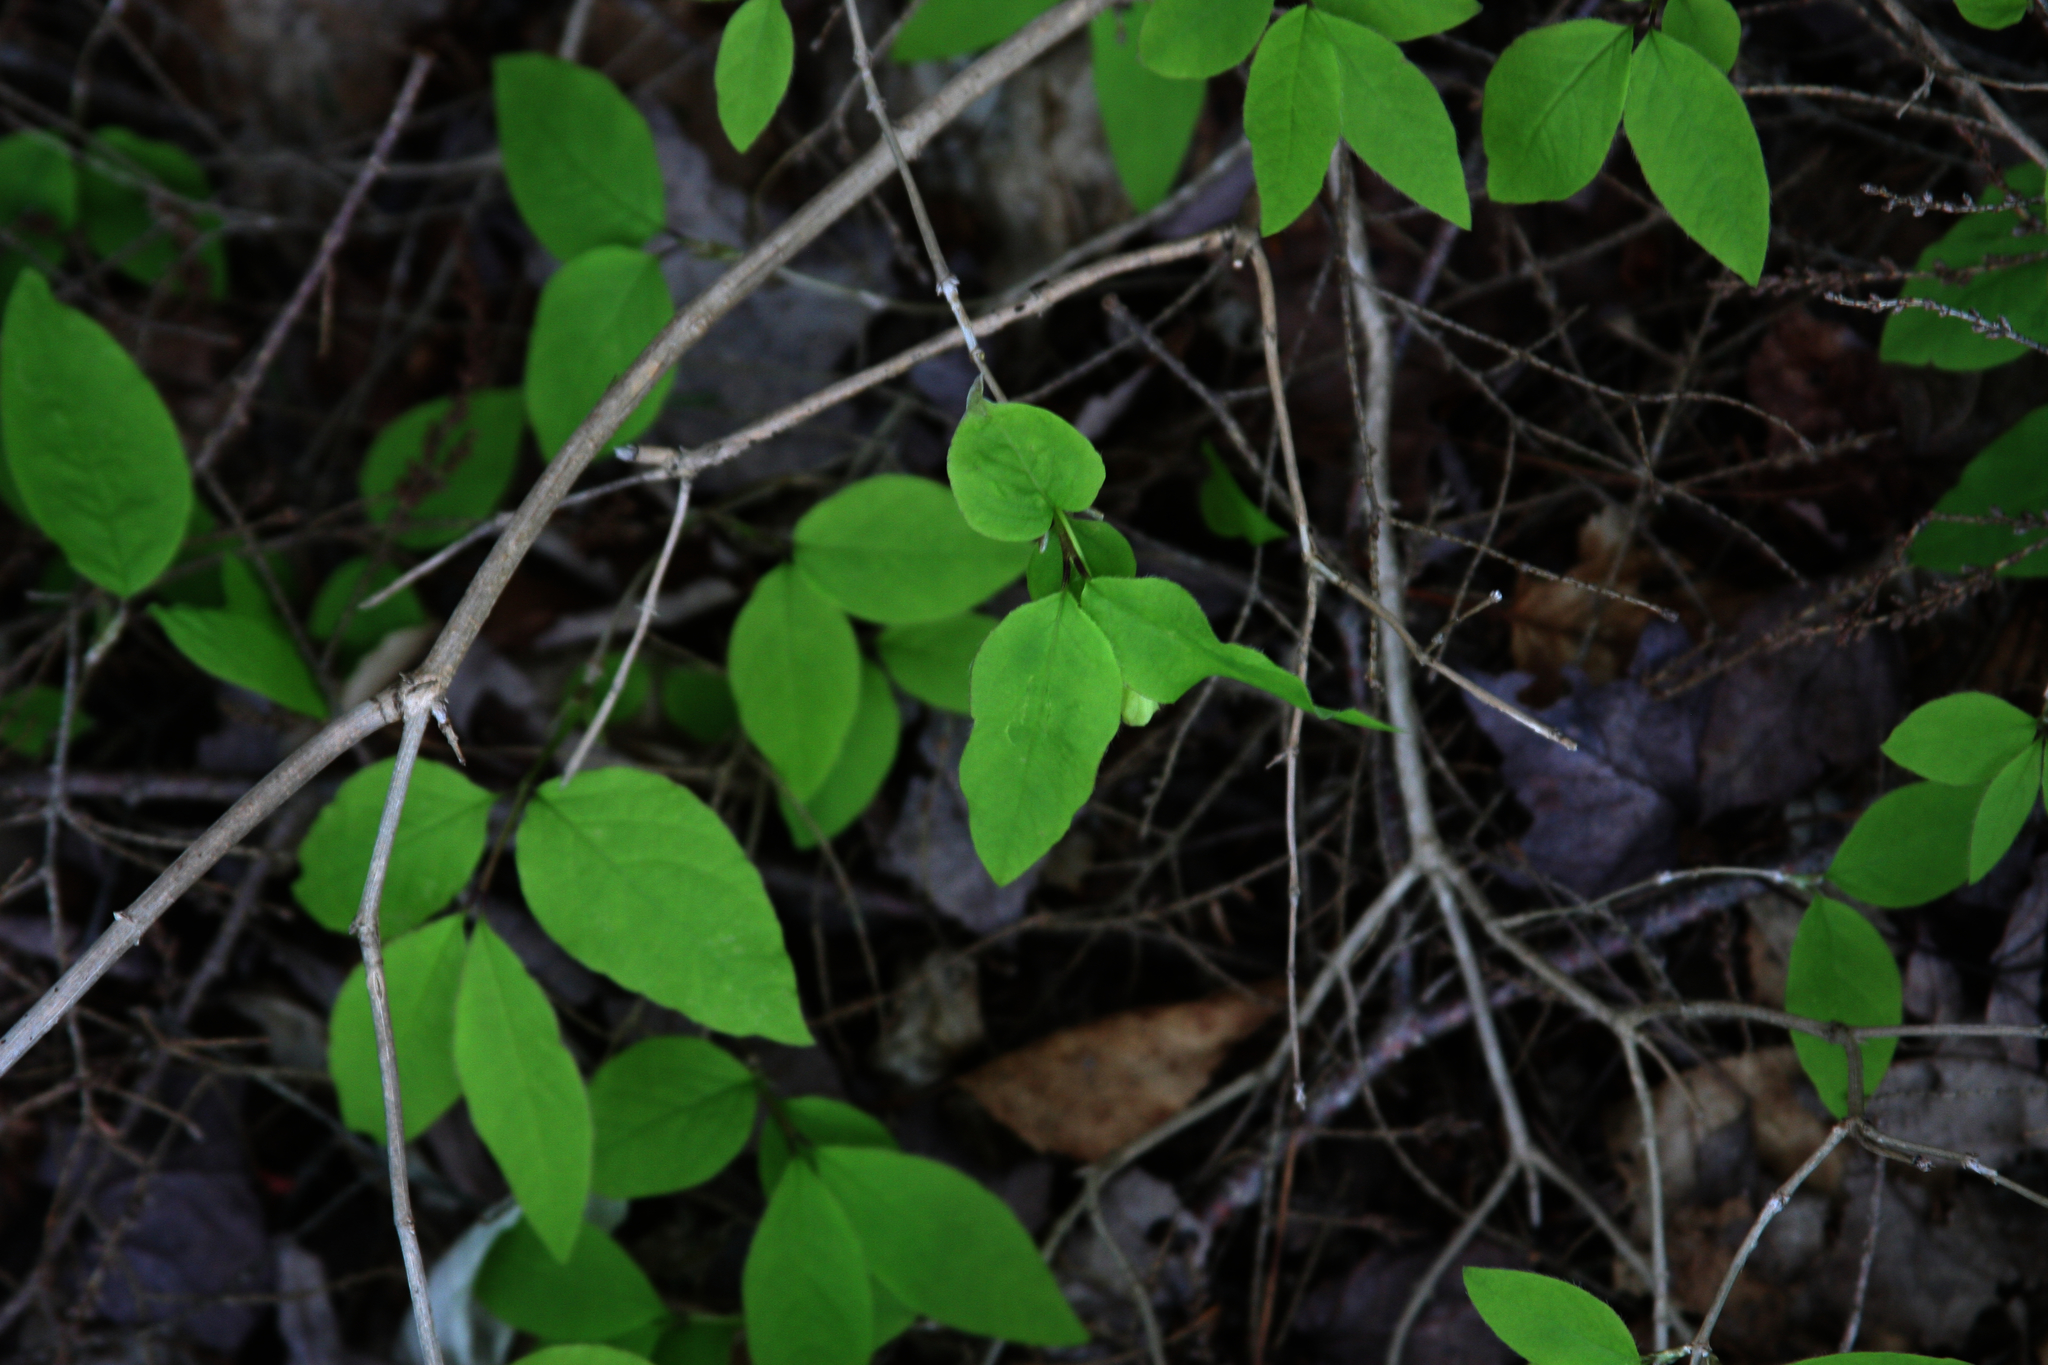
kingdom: Plantae
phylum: Tracheophyta
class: Magnoliopsida
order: Dipsacales
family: Caprifoliaceae
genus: Lonicera
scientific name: Lonicera canadensis
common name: American fly-honeysuckle
